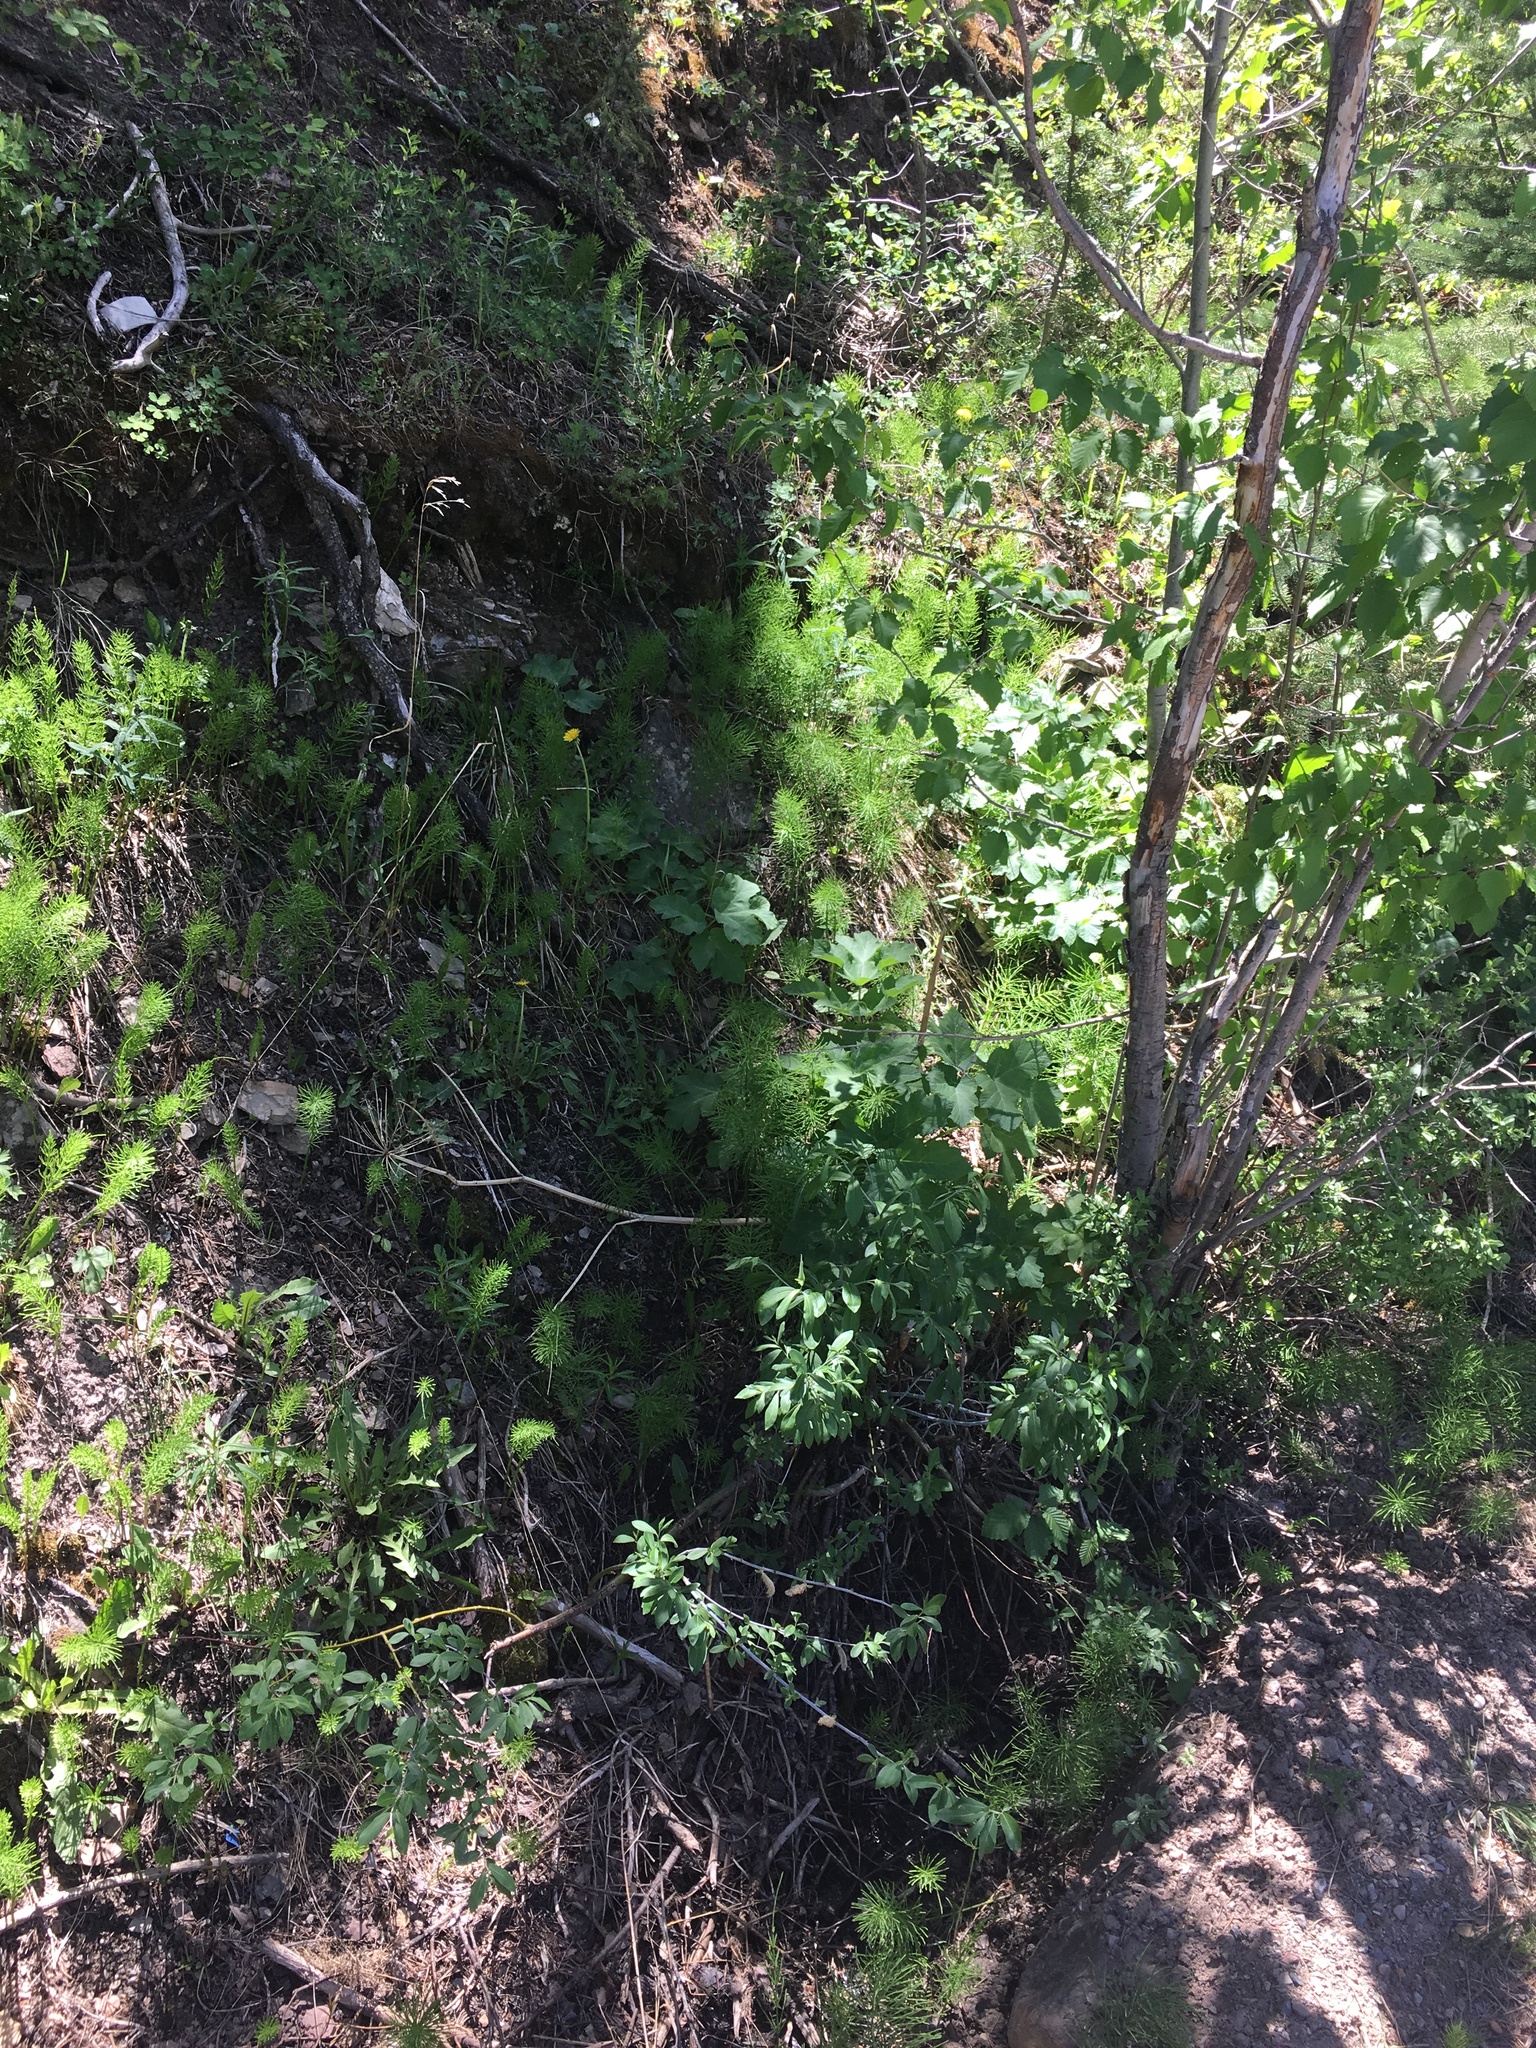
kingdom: Plantae
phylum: Tracheophyta
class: Polypodiopsida
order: Equisetales
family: Equisetaceae
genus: Equisetum
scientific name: Equisetum arvense
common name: Field horsetail
